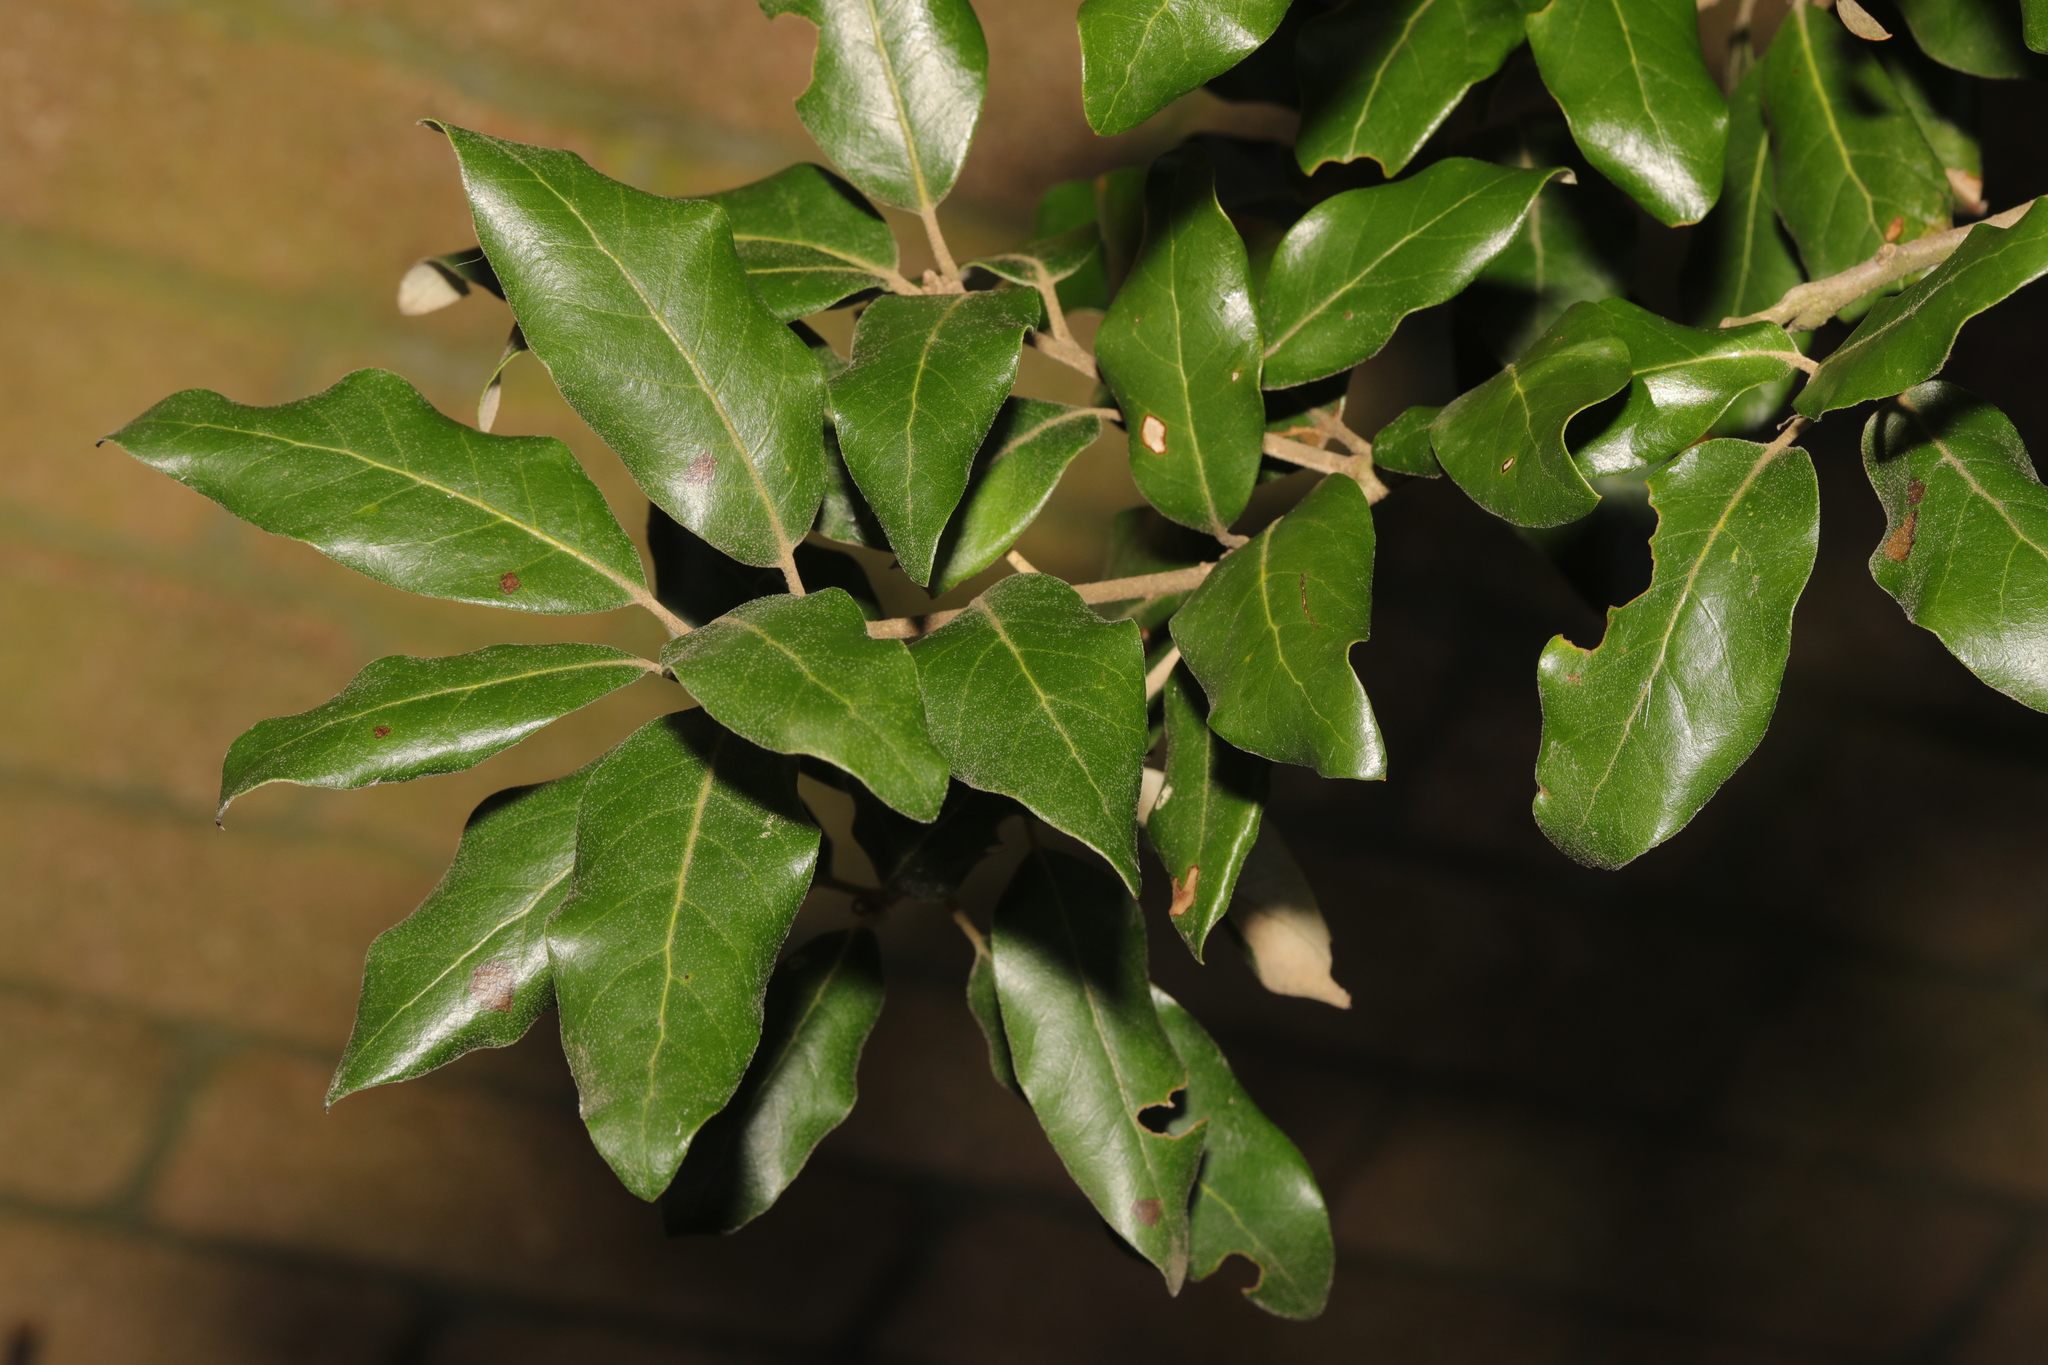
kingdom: Plantae
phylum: Tracheophyta
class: Magnoliopsida
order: Fagales
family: Fagaceae
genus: Quercus
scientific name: Quercus ilex
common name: Evergreen oak
